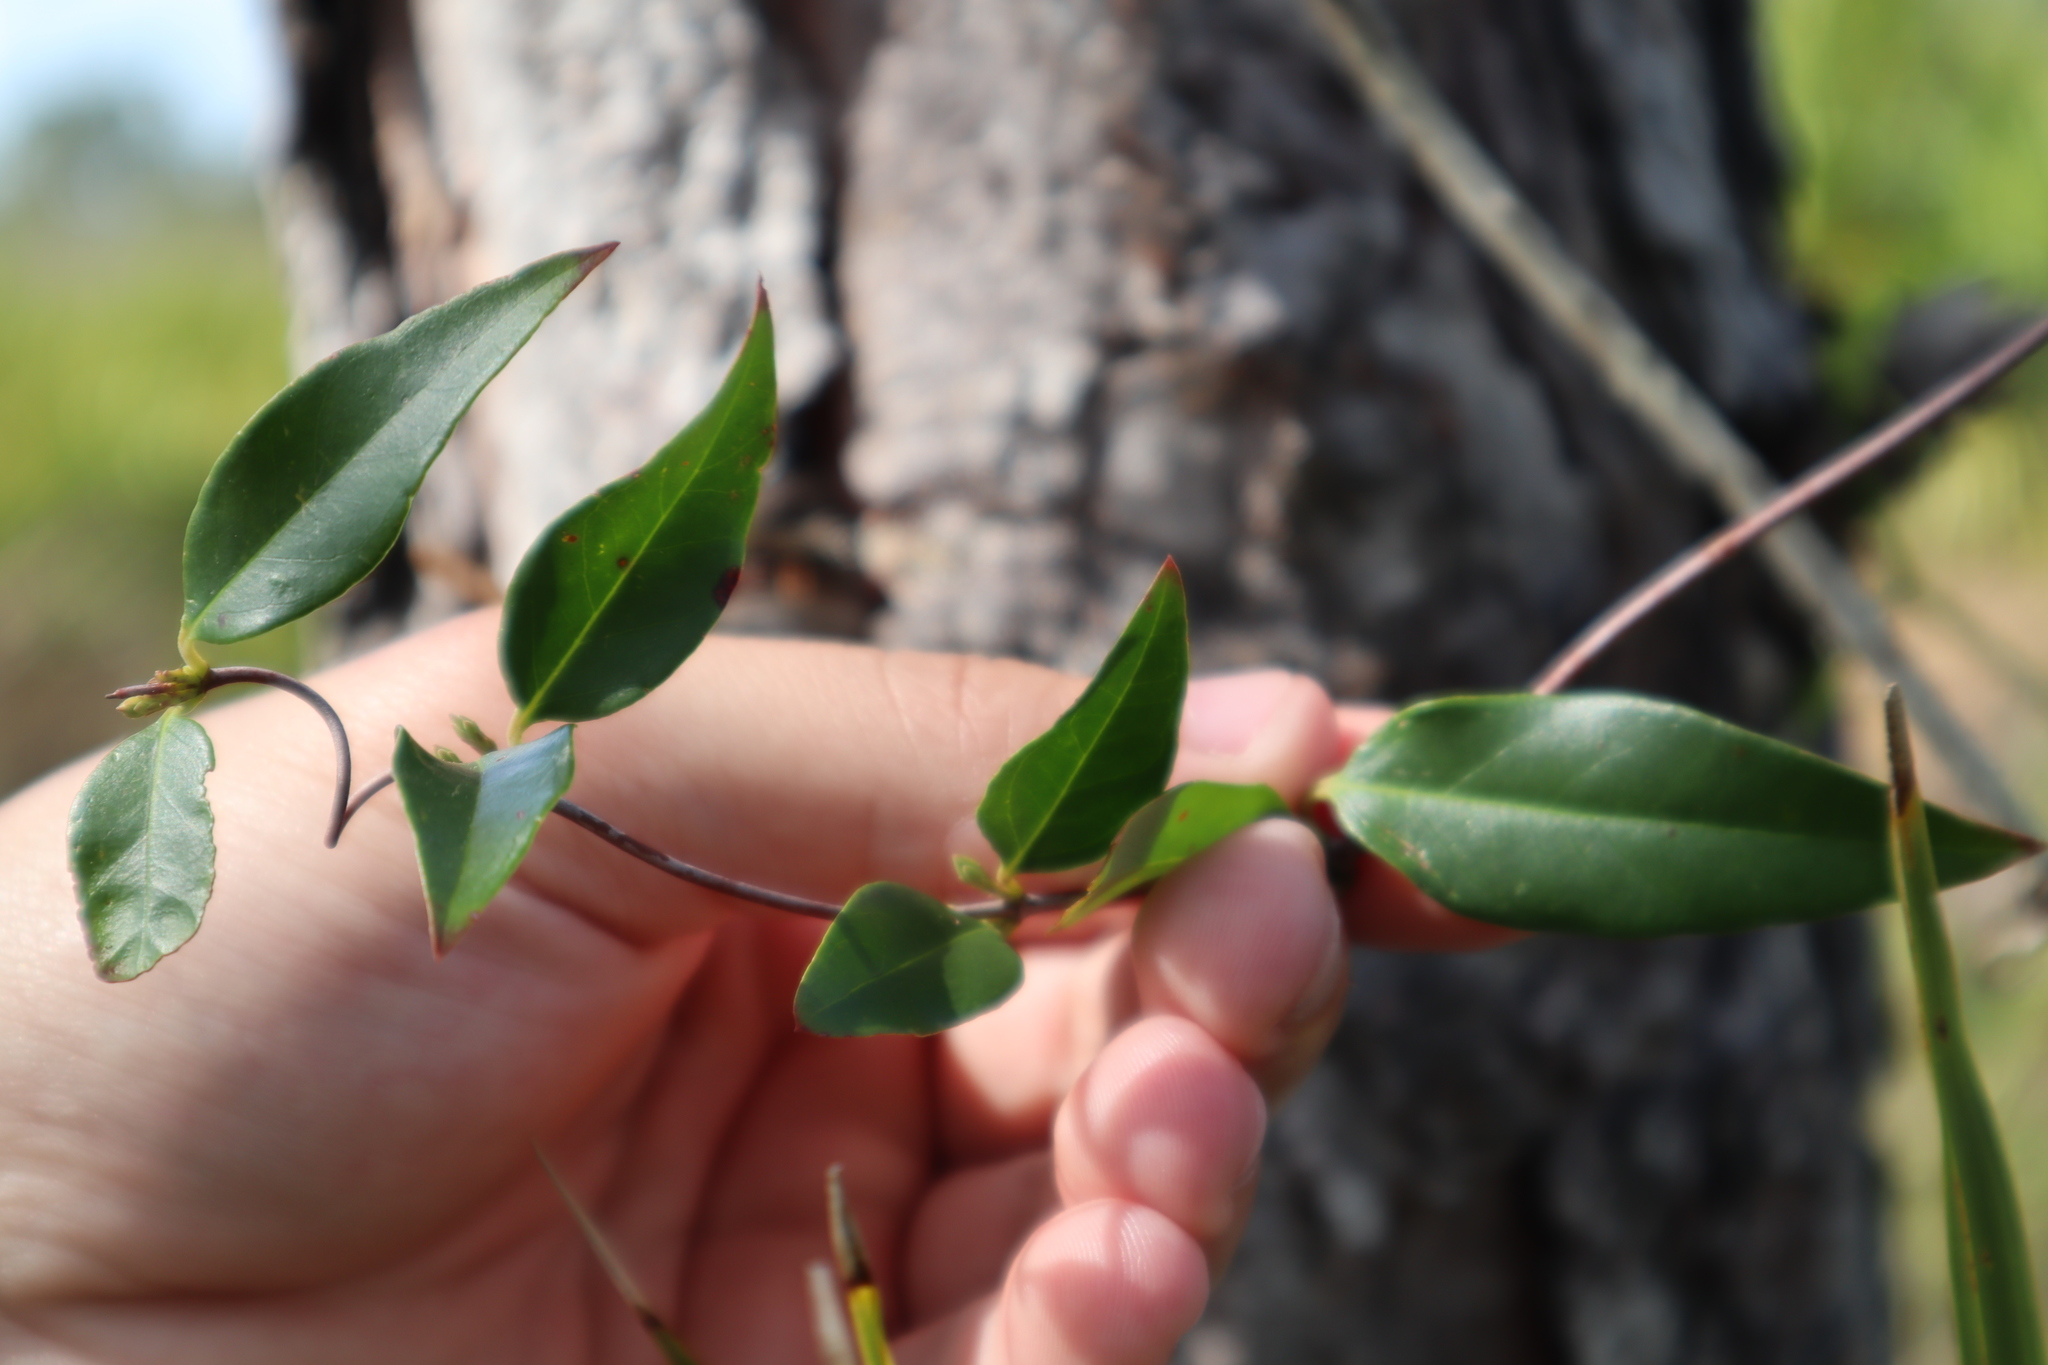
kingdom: Plantae
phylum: Tracheophyta
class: Magnoliopsida
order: Gentianales
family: Gelsemiaceae
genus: Gelsemium
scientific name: Gelsemium sempervirens
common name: Carolina-jasmine
